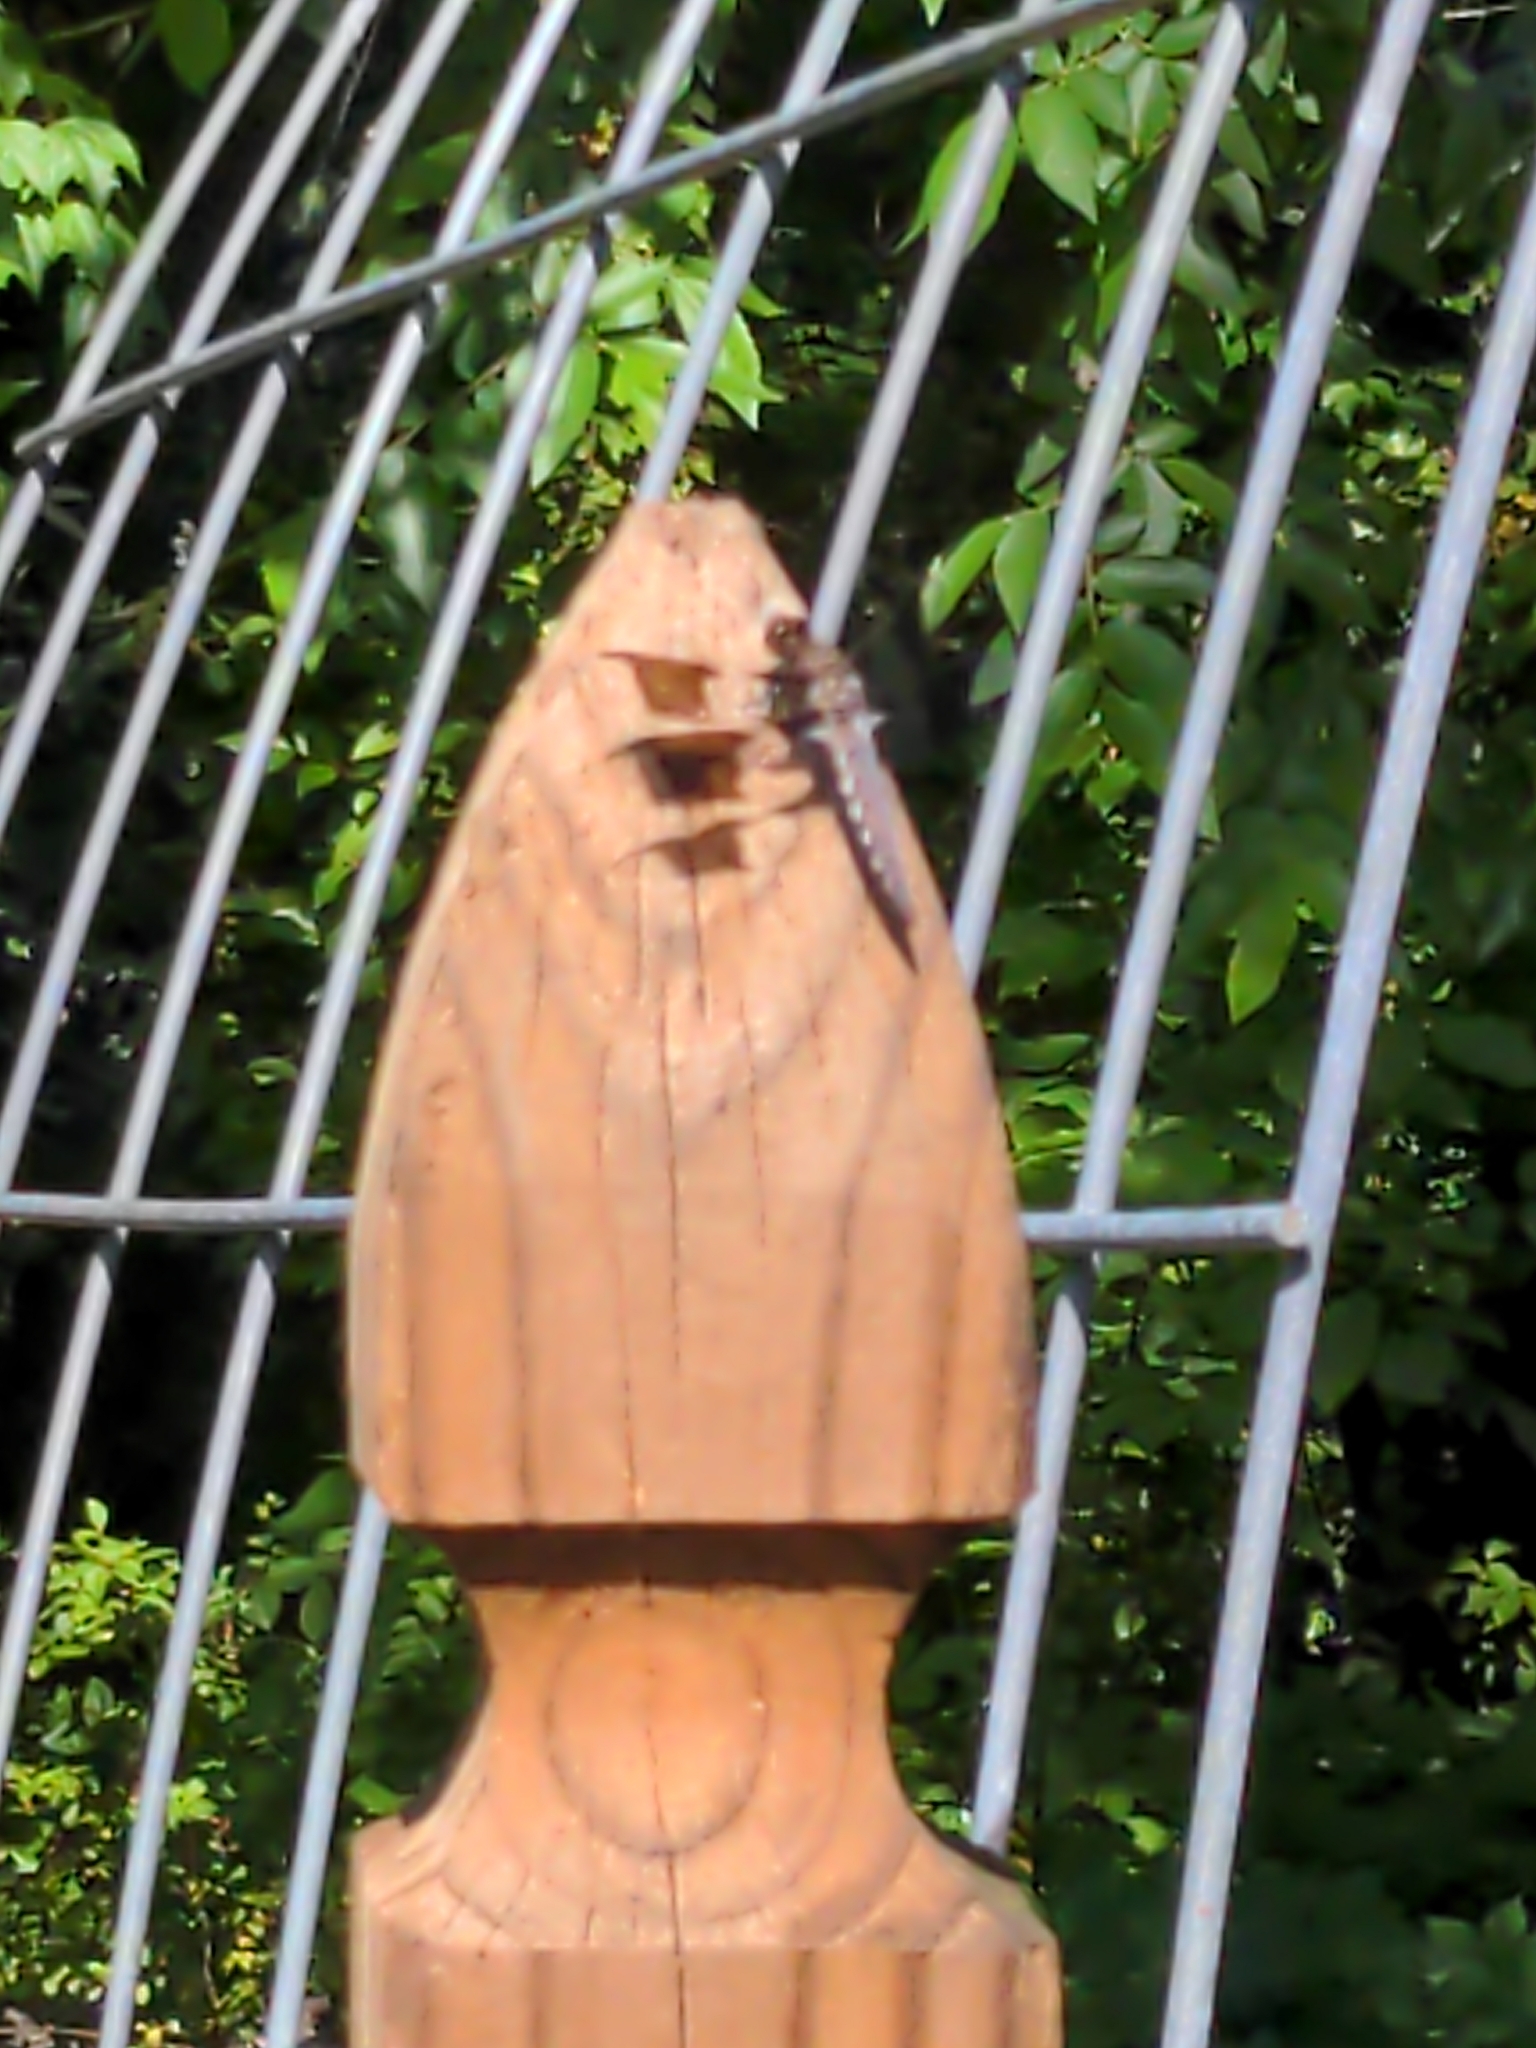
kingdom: Animalia
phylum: Arthropoda
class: Insecta
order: Odonata
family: Libellulidae
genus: Plathemis
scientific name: Plathemis lydia
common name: Common whitetail
